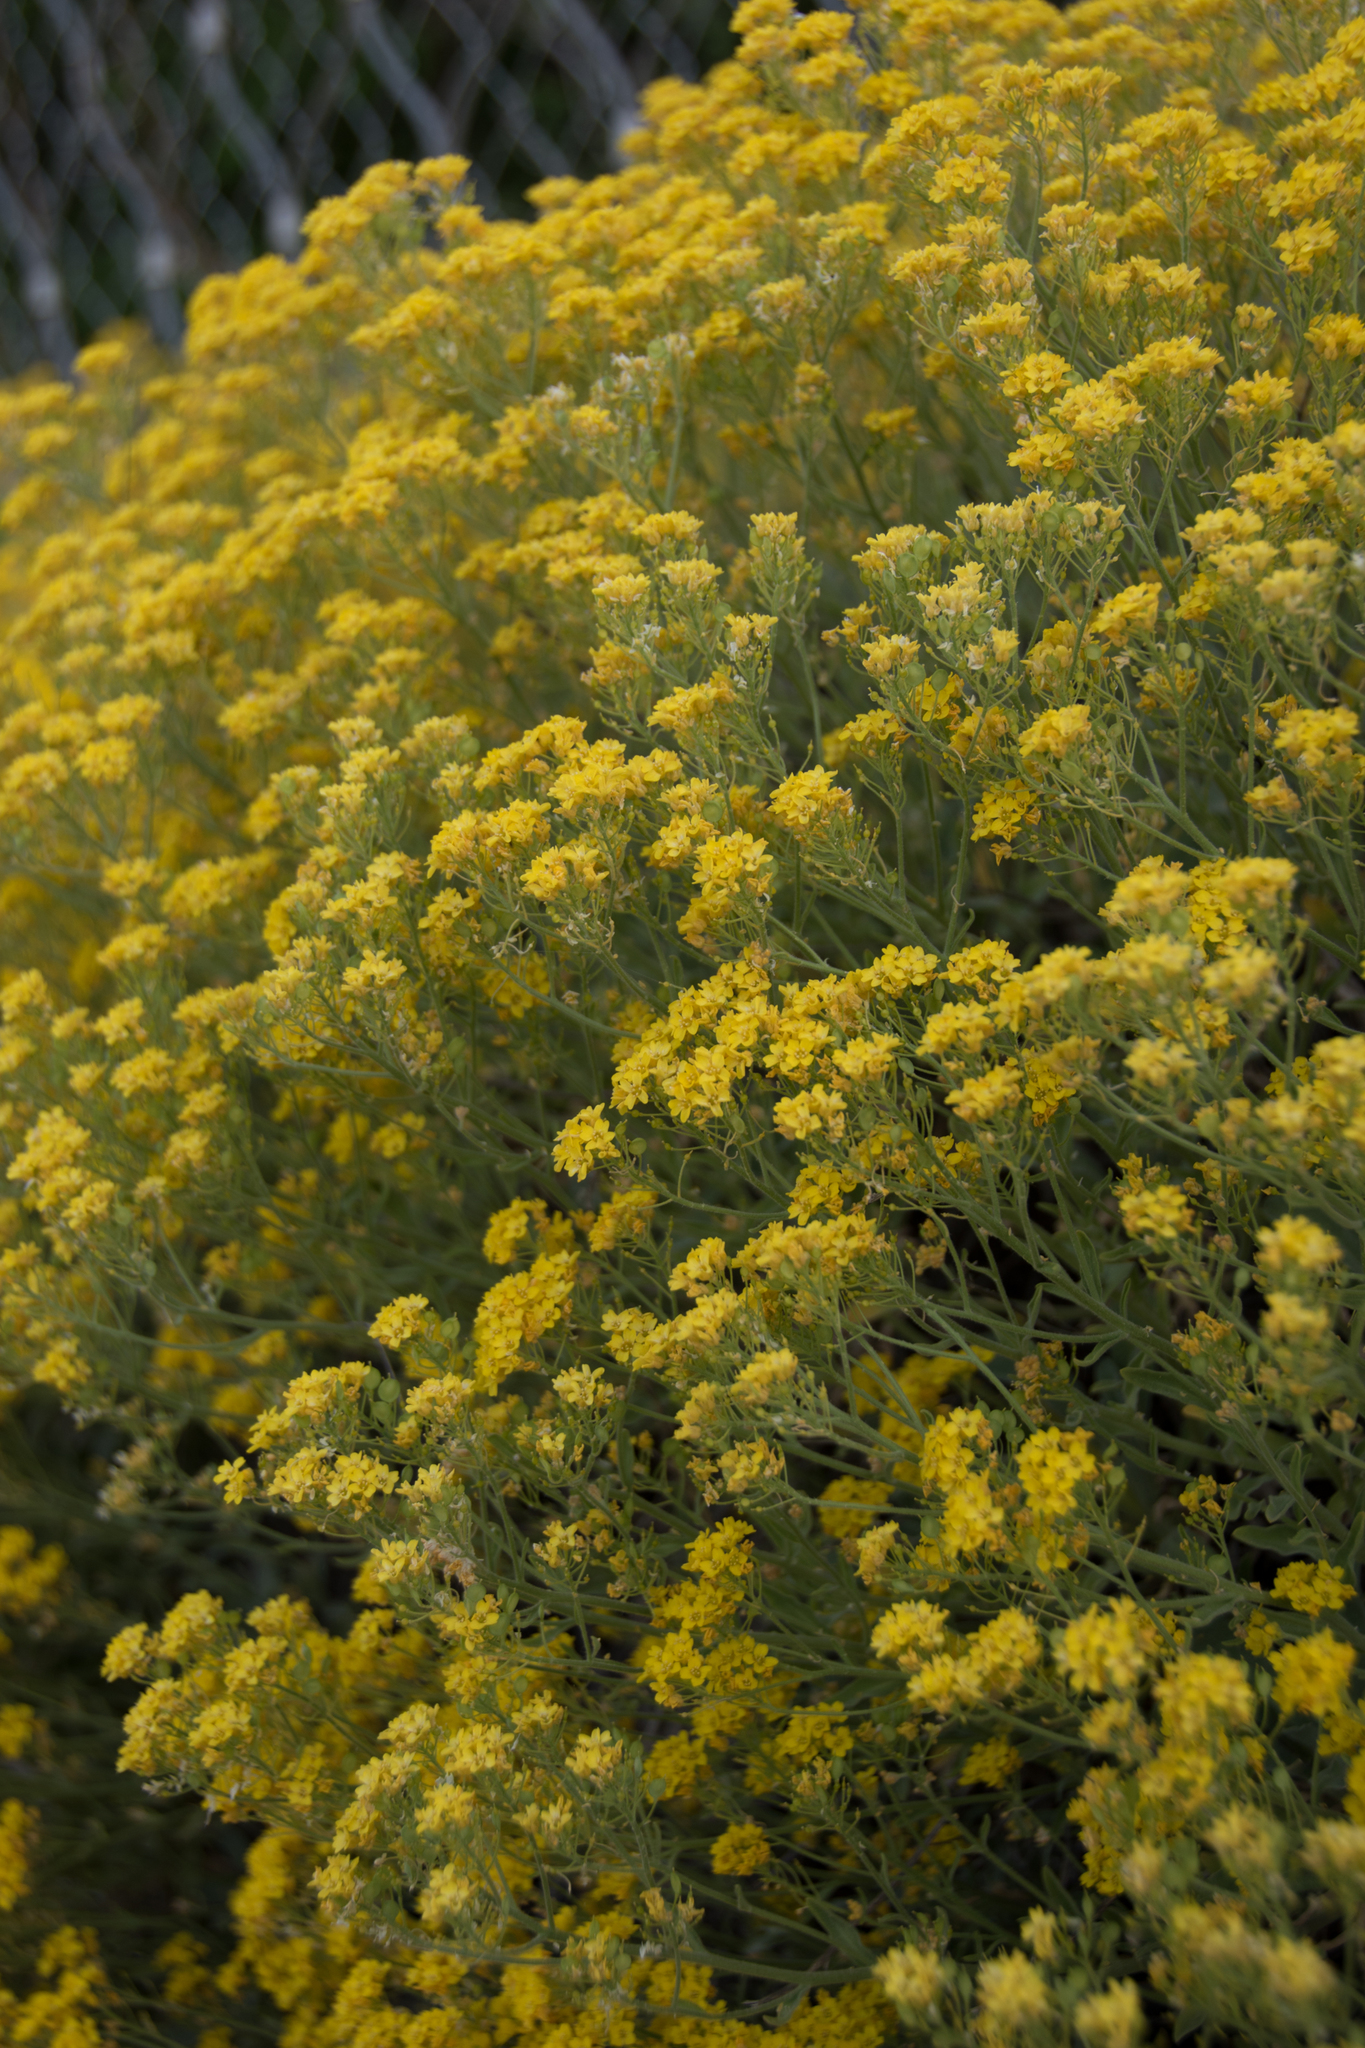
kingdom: Plantae
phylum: Tracheophyta
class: Magnoliopsida
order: Brassicales
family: Brassicaceae
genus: Aurinia
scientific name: Aurinia saxatilis
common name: Golden-tuft alyssum
